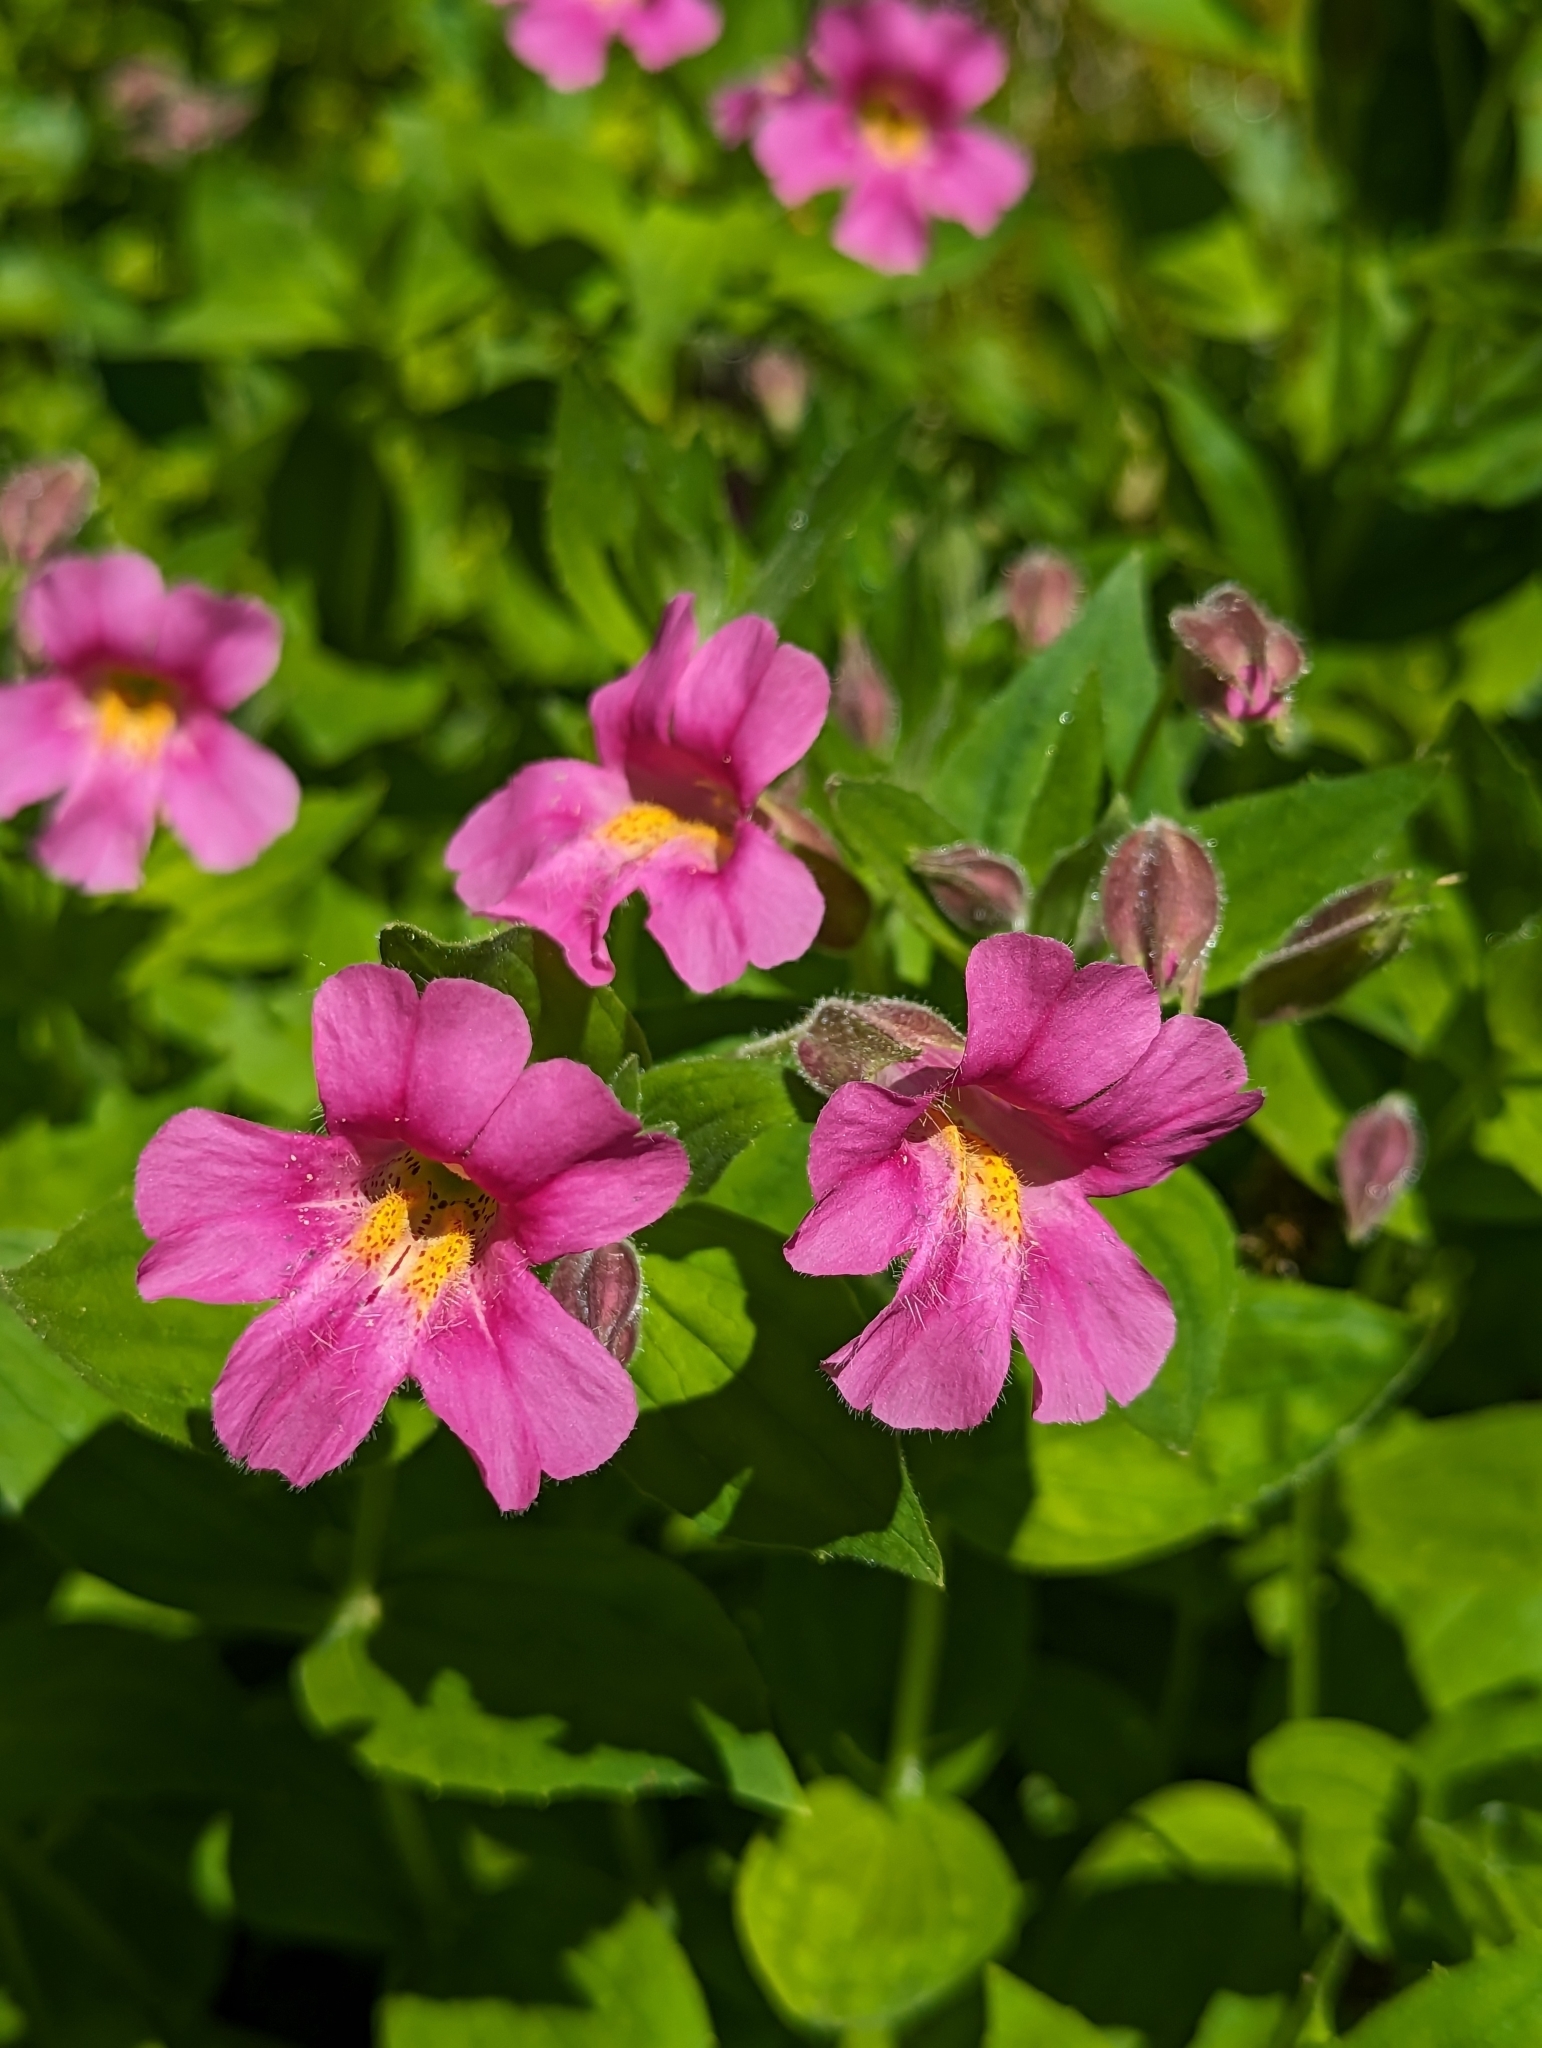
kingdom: Plantae
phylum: Tracheophyta
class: Magnoliopsida
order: Lamiales
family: Phrymaceae
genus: Erythranthe
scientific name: Erythranthe lewisii
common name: Lewis's monkey-flower
